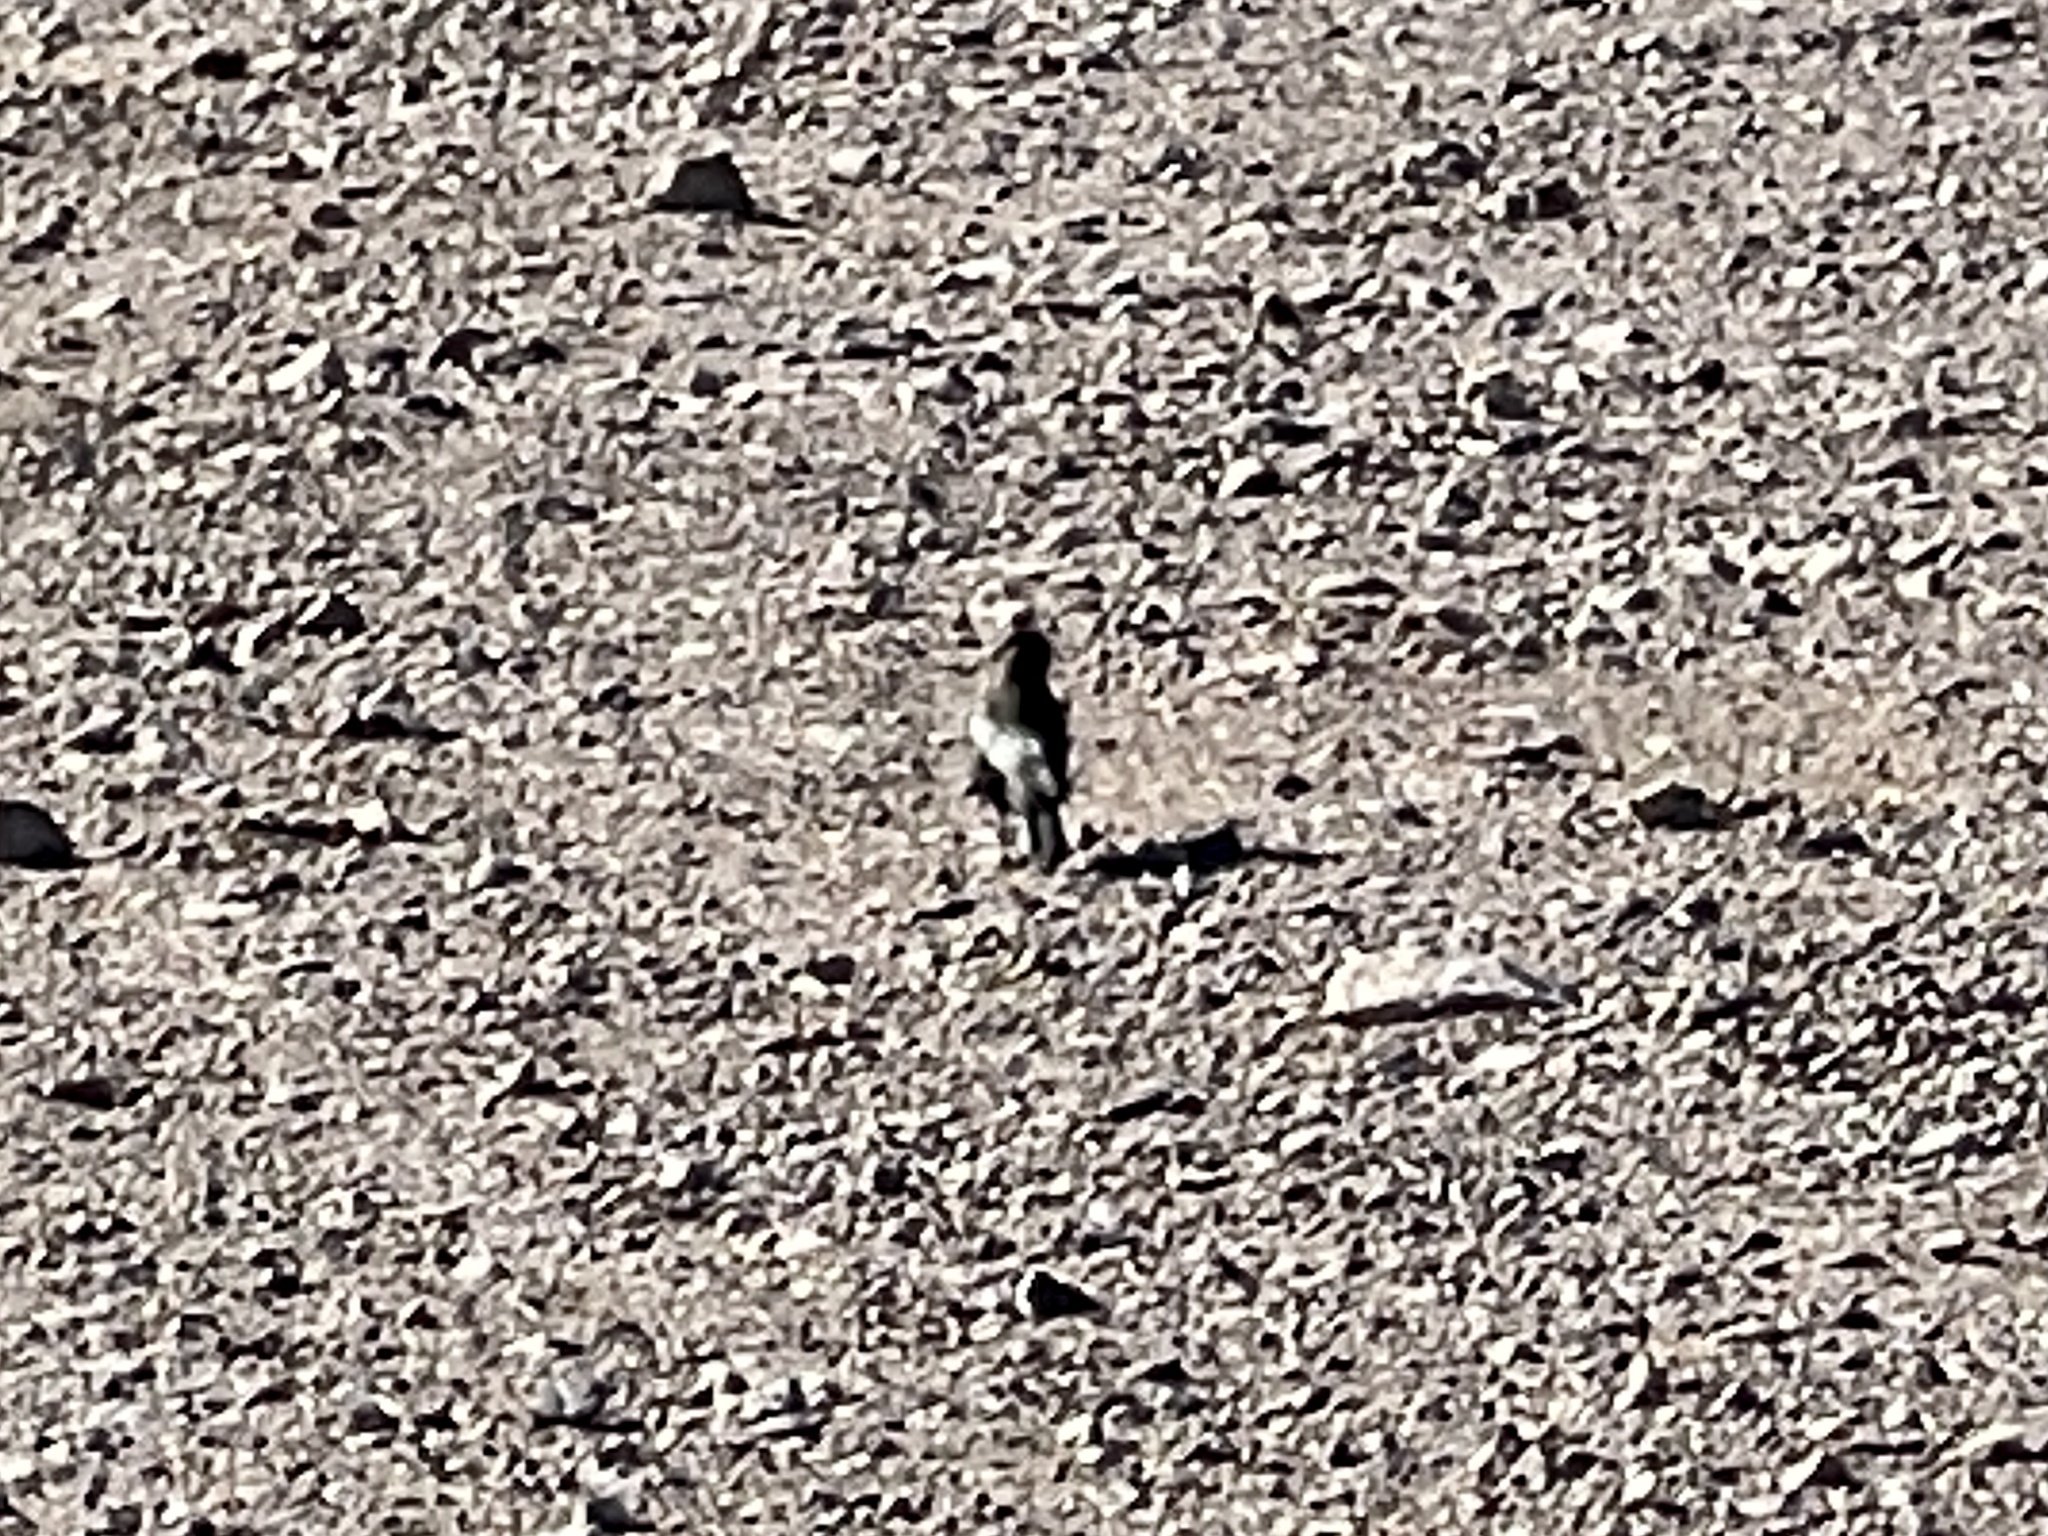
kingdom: Animalia
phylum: Chordata
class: Aves
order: Passeriformes
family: Icteridae
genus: Euphagus
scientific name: Euphagus cyanocephalus
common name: Brewer's blackbird
